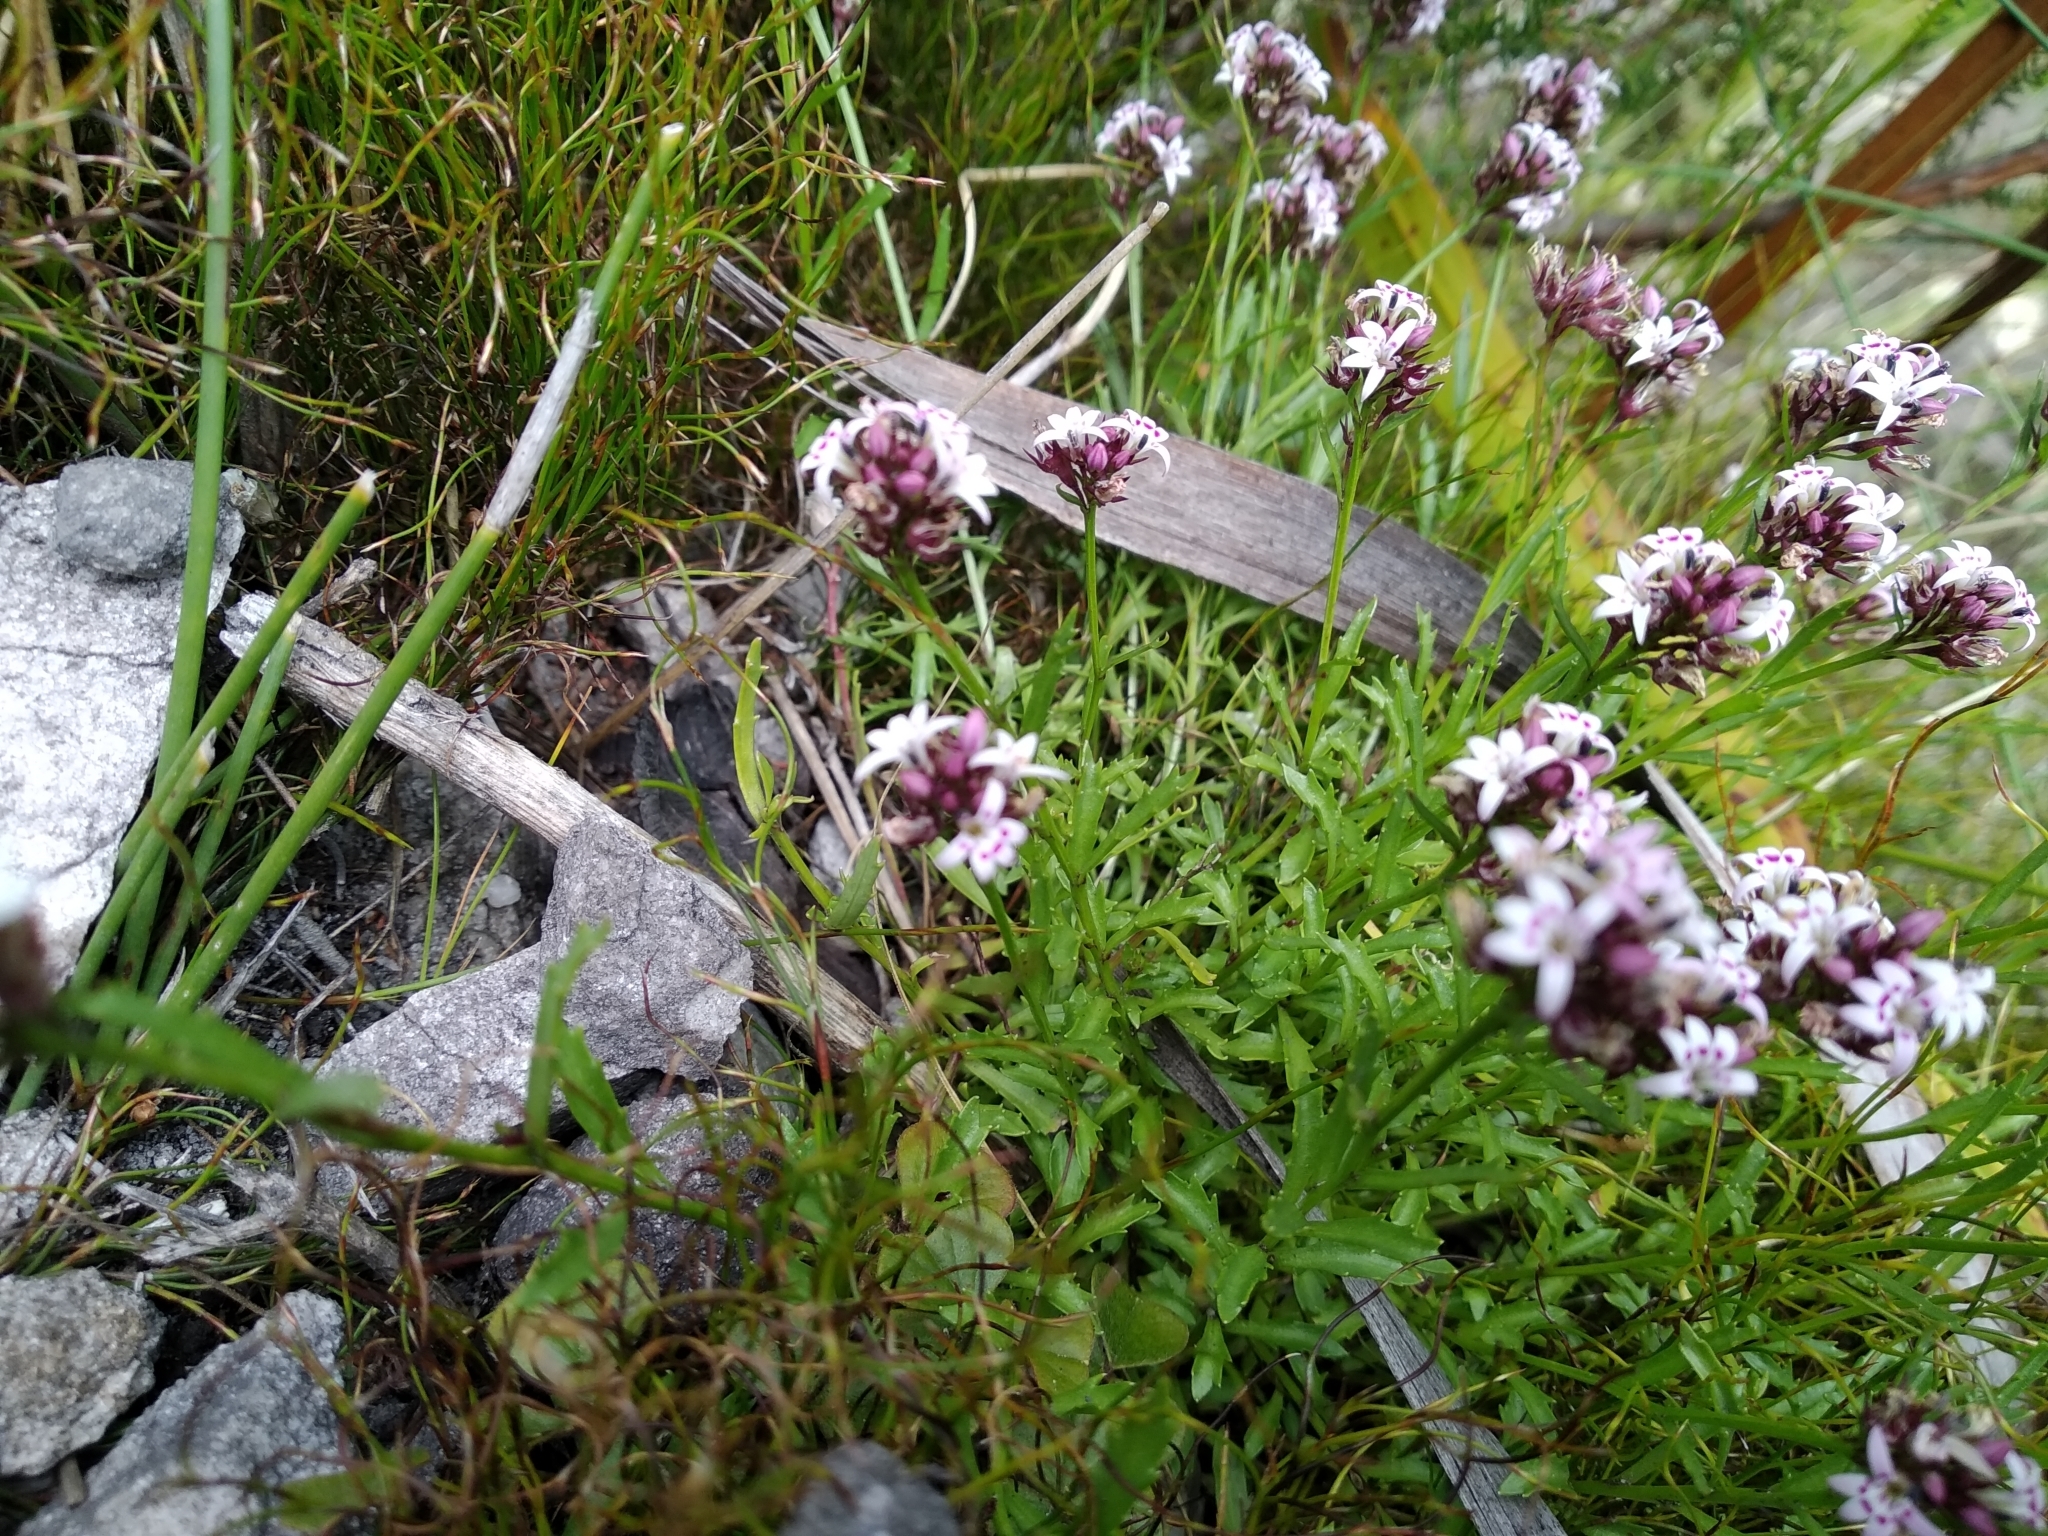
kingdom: Plantae
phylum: Tracheophyta
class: Magnoliopsida
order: Asterales
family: Campanulaceae
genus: Lobelia
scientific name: Lobelia jasionoides
